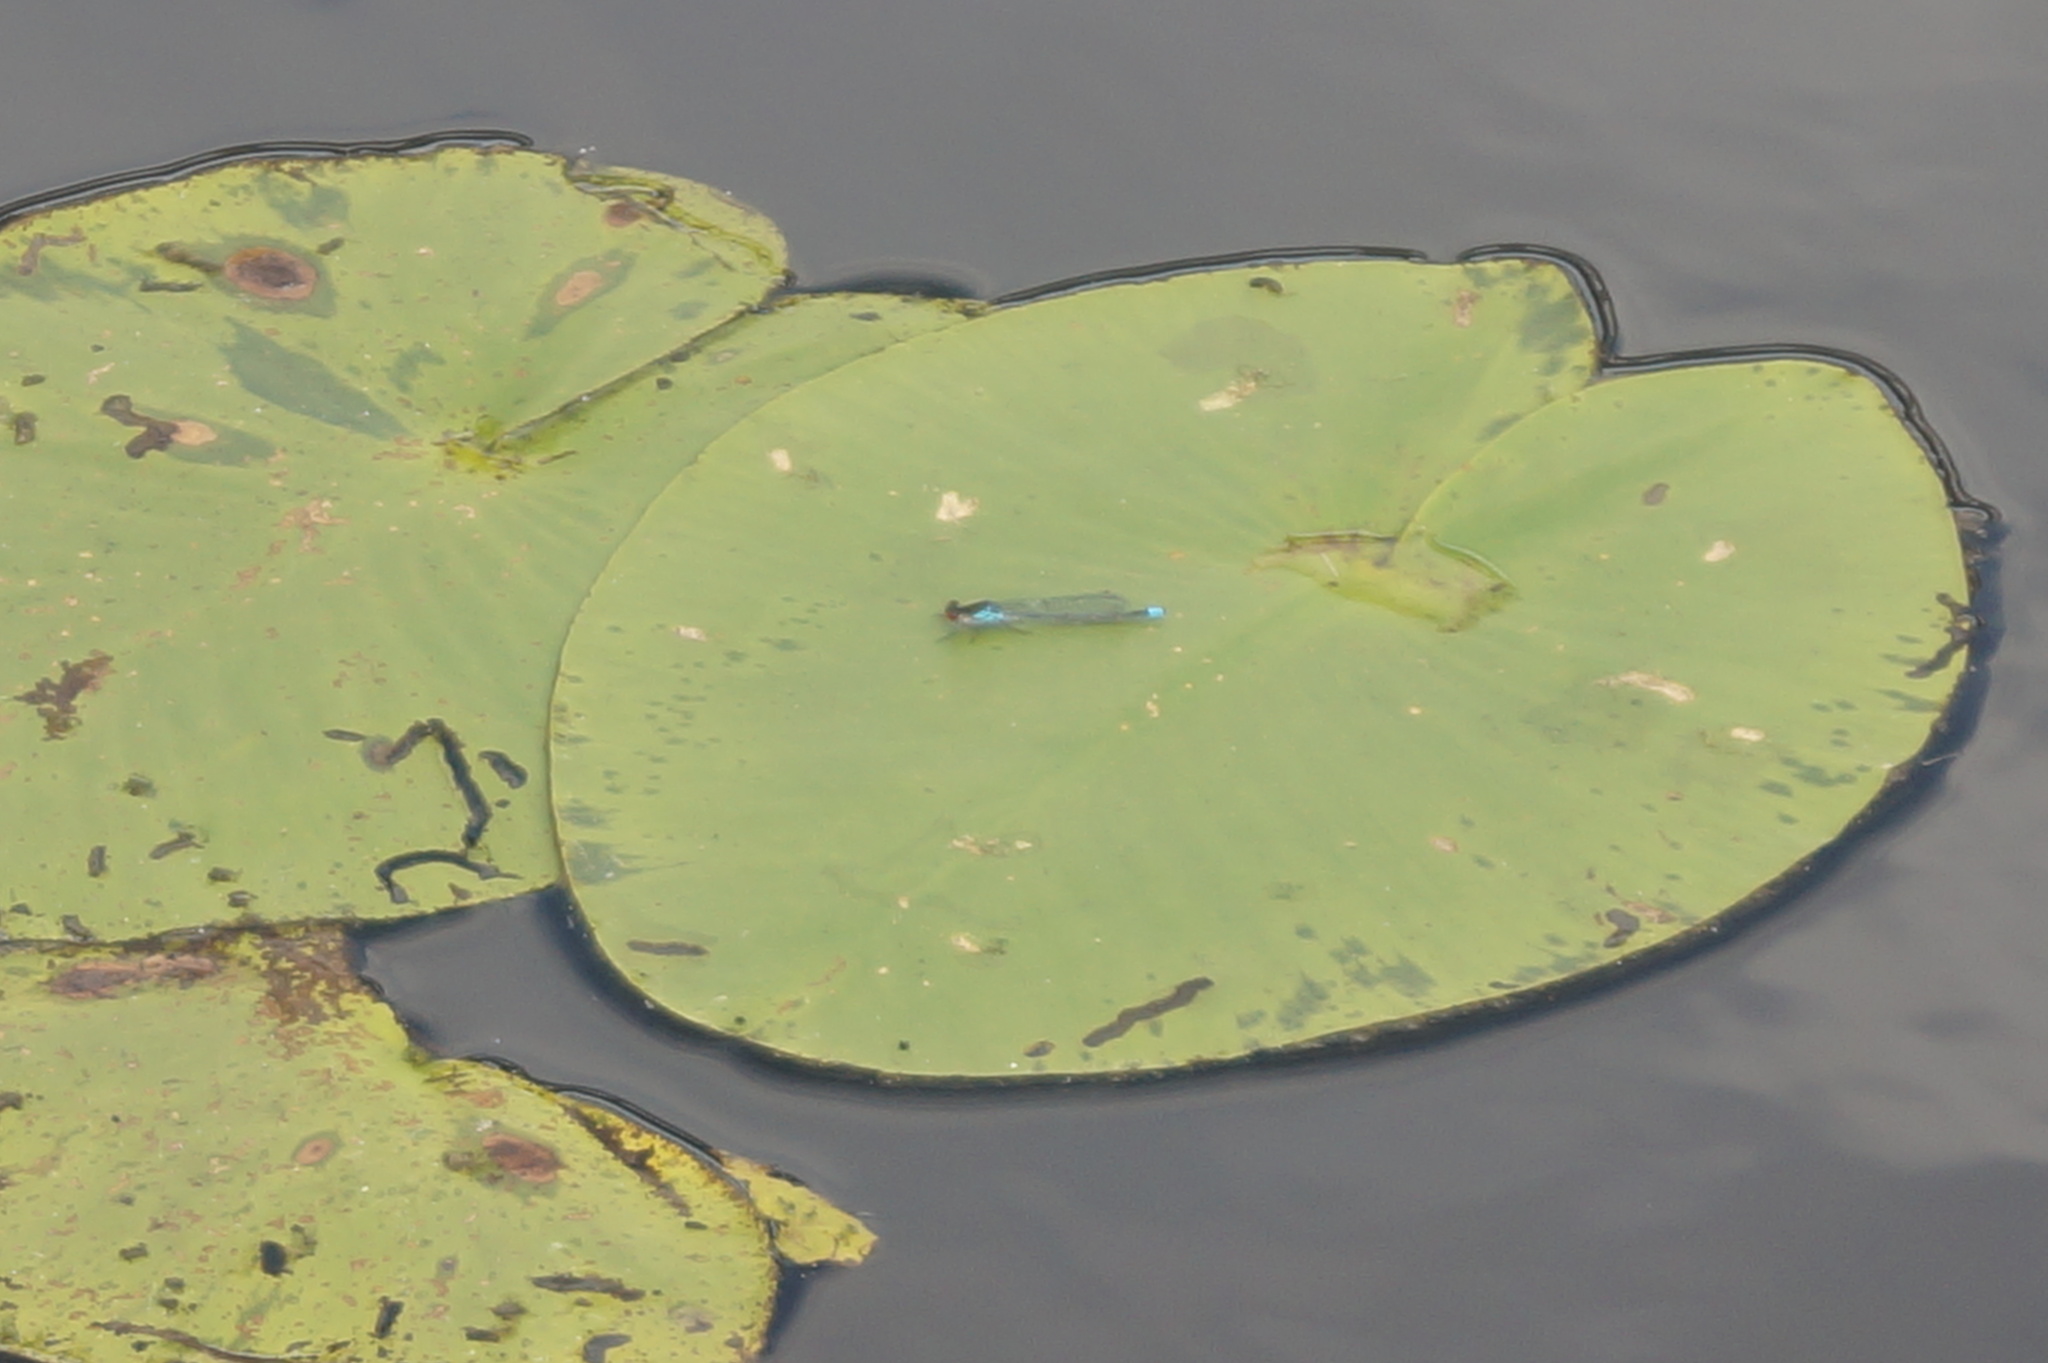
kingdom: Animalia
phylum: Arthropoda
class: Insecta
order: Odonata
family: Coenagrionidae
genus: Erythromma
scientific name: Erythromma najas
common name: Red-eyed damselfly
